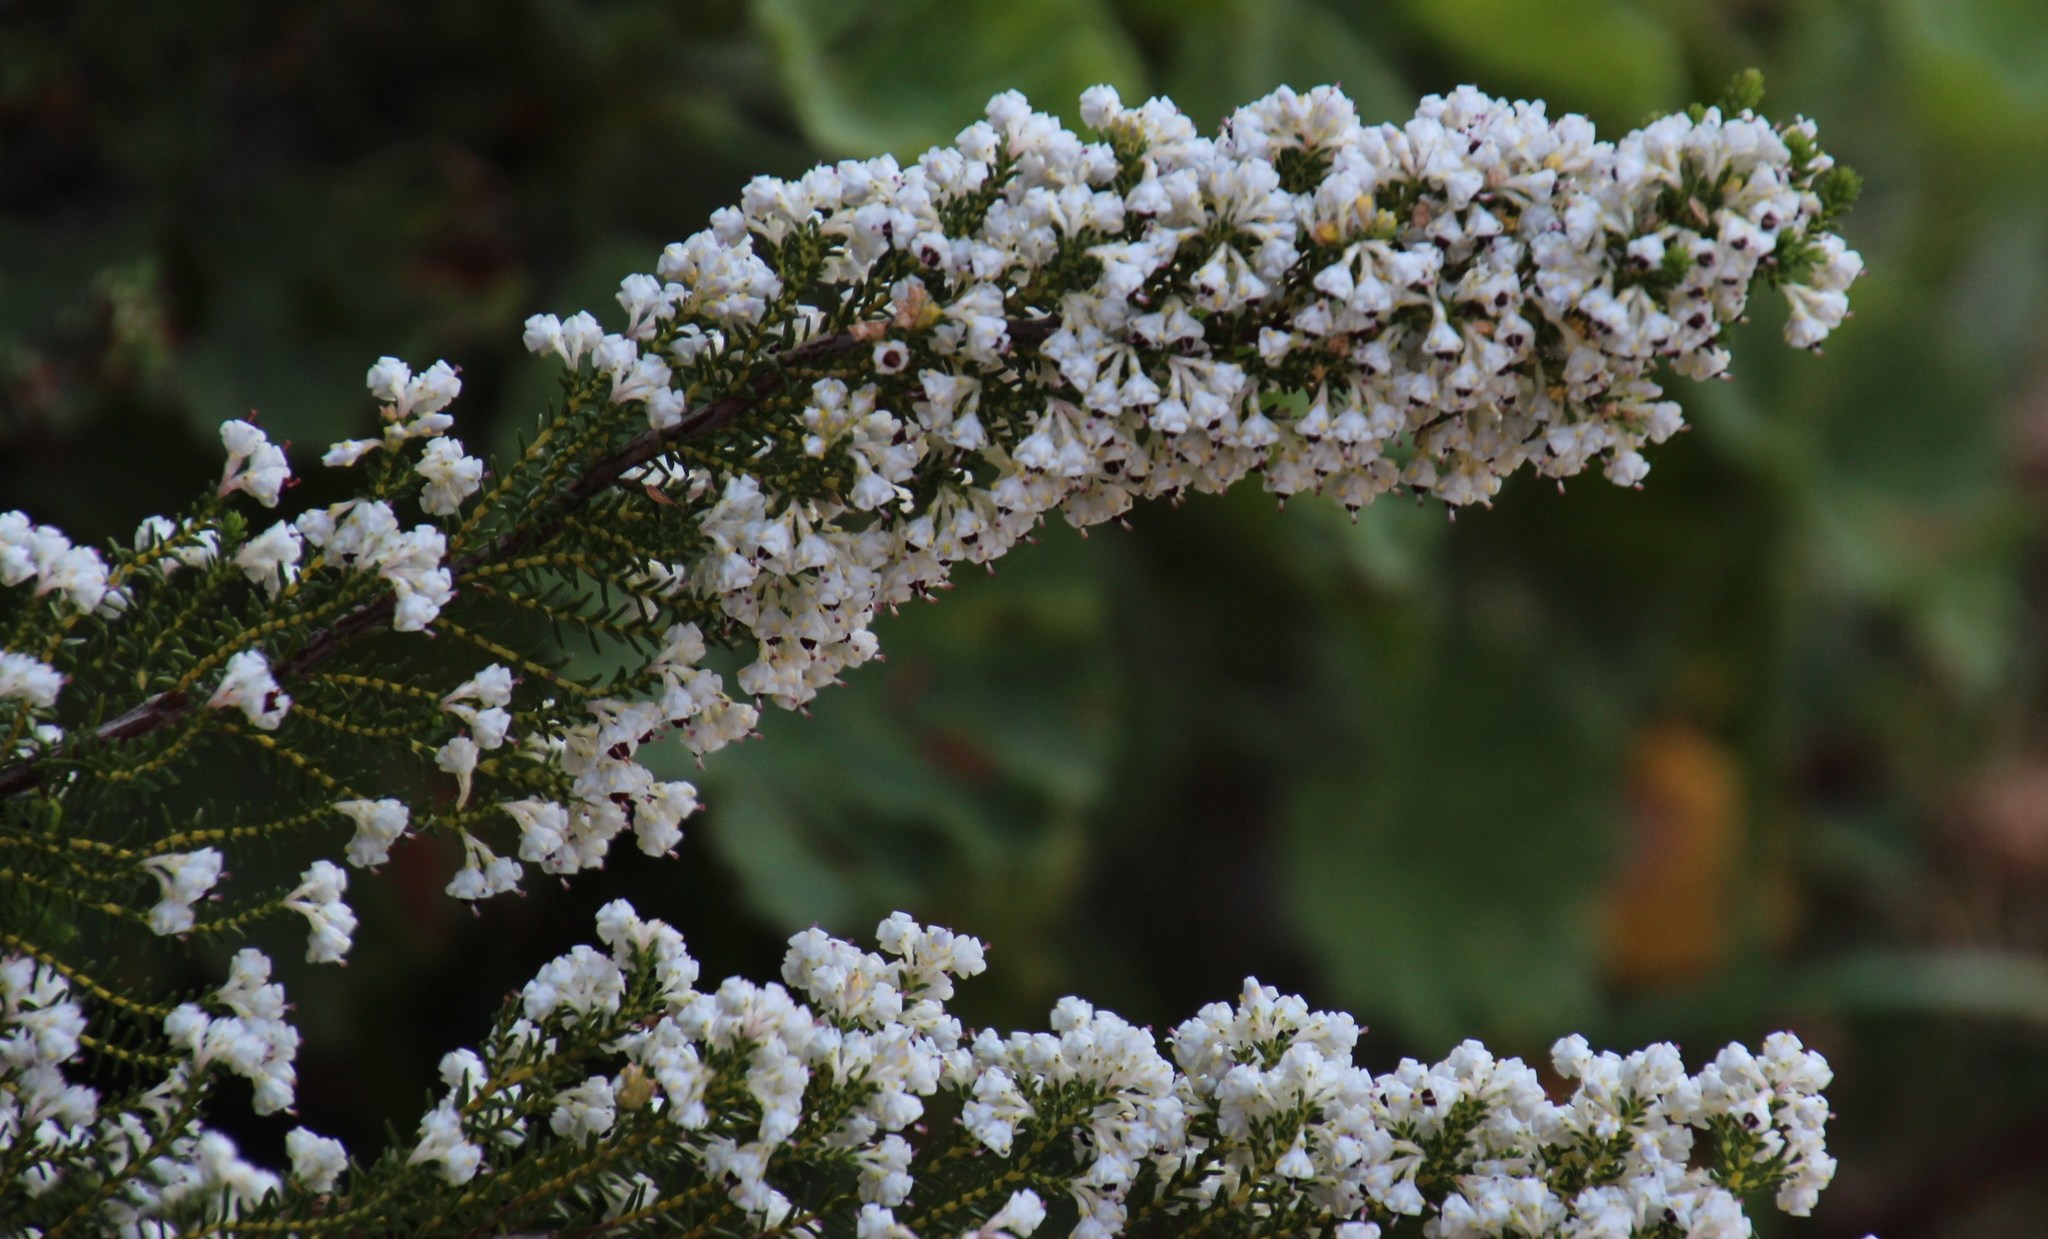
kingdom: Plantae
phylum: Tracheophyta
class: Magnoliopsida
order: Ericales
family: Ericaceae
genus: Erica
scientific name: Erica calycina
